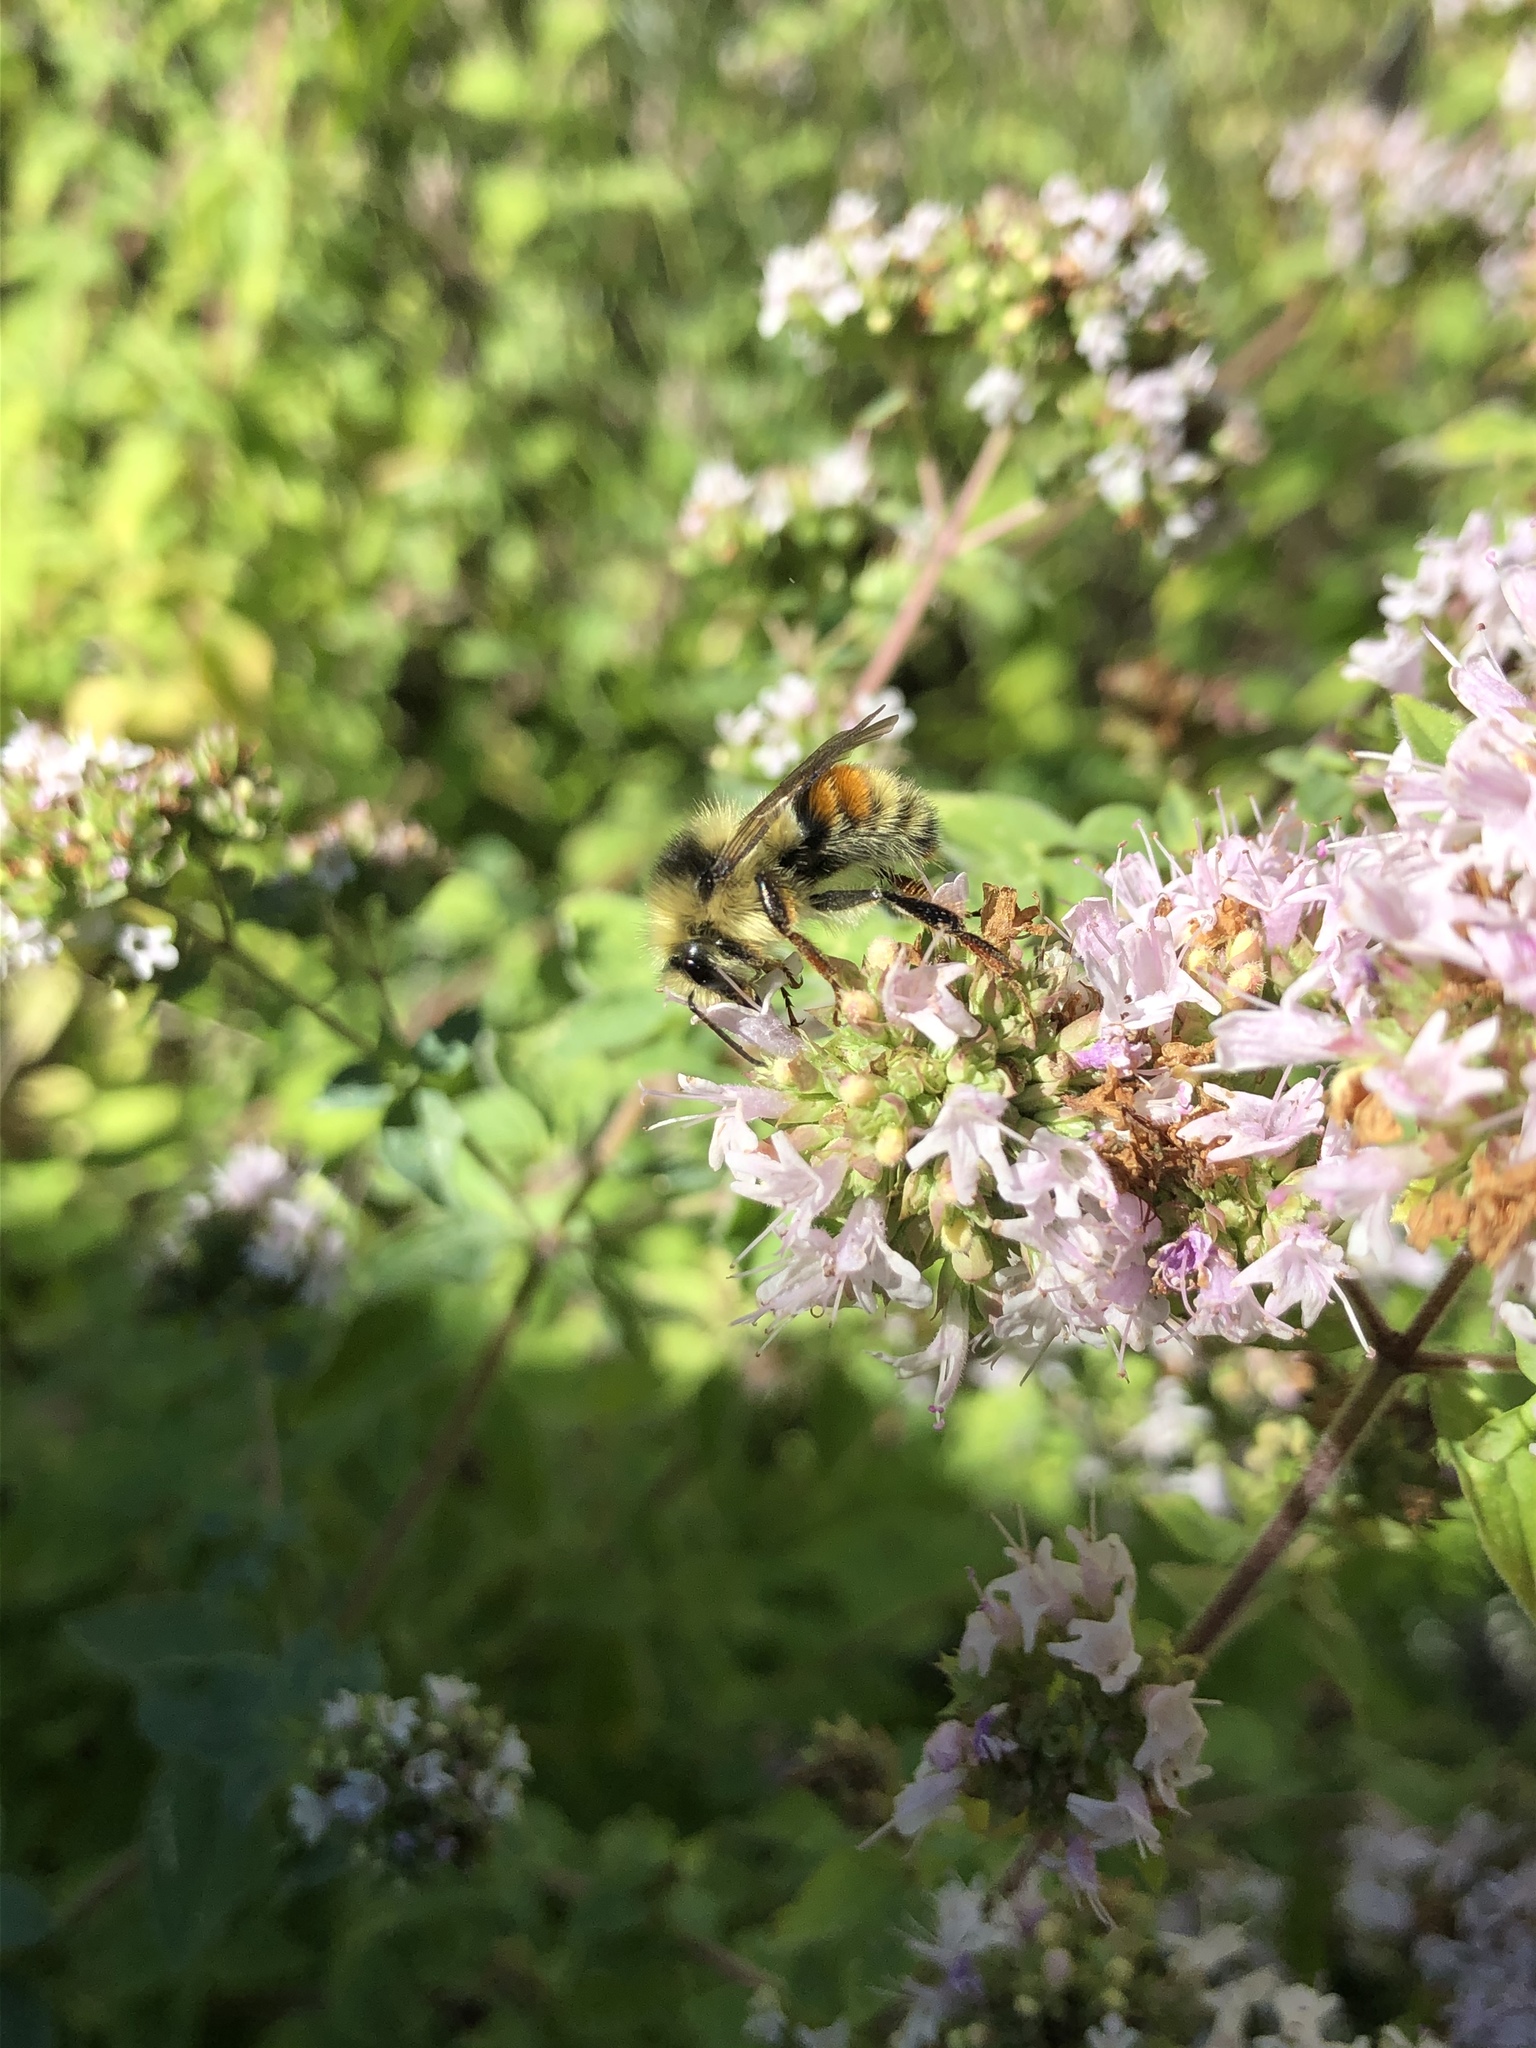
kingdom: Animalia
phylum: Arthropoda
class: Insecta
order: Hymenoptera
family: Apidae
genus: Bombus
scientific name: Bombus vancouverensis
